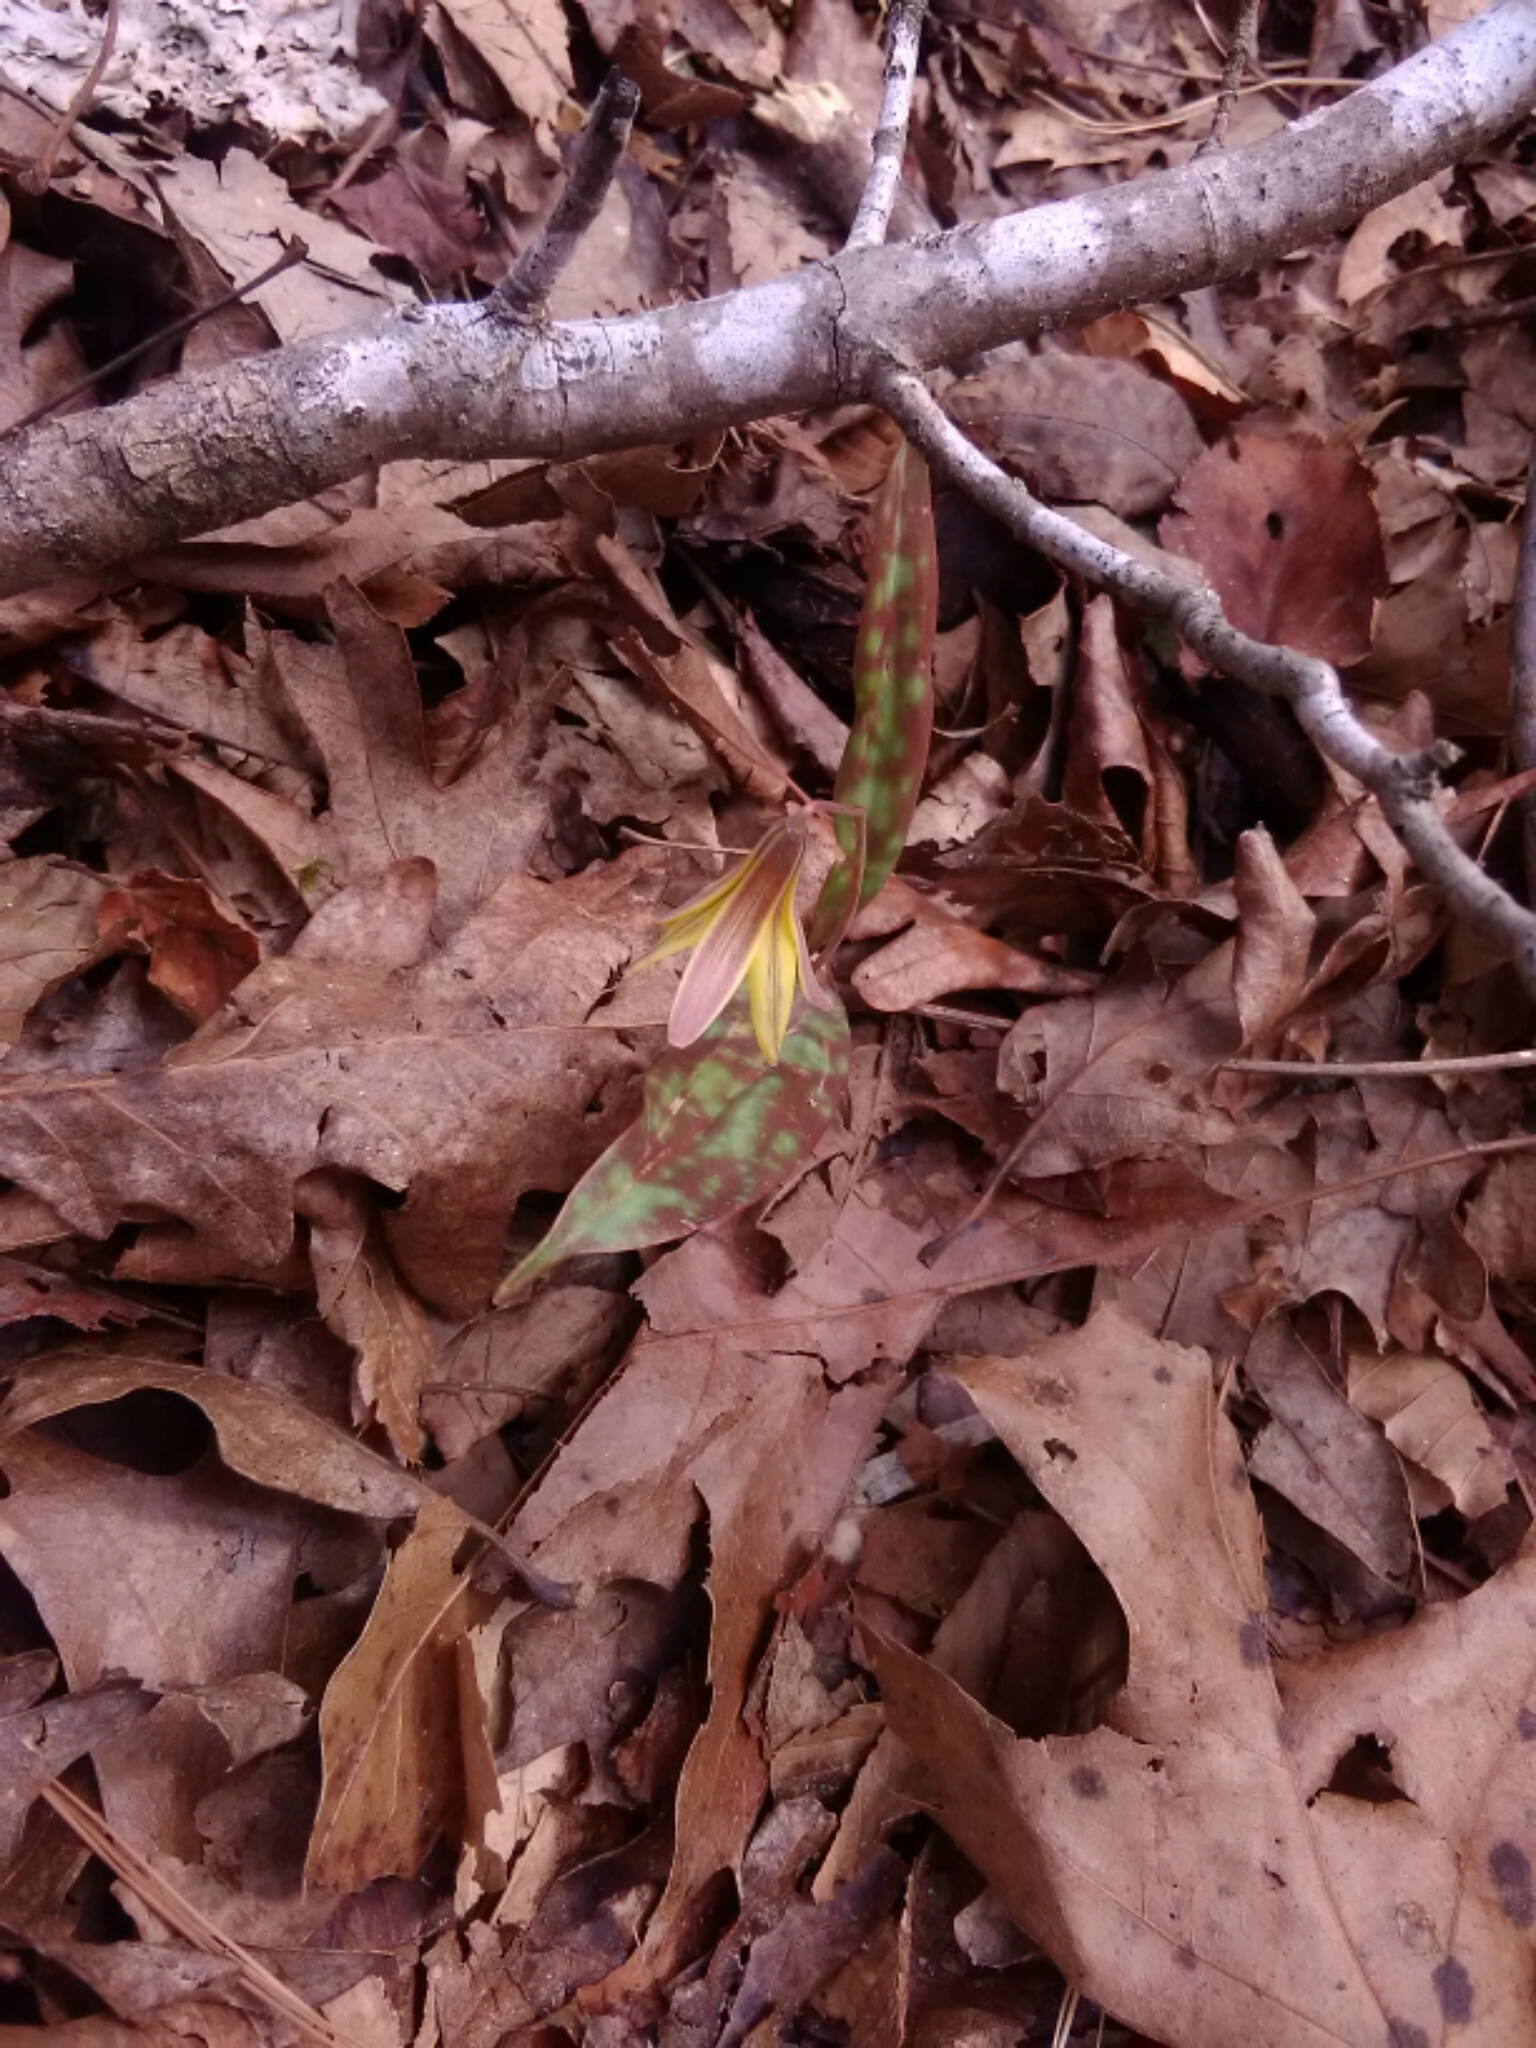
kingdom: Plantae
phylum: Tracheophyta
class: Liliopsida
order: Liliales
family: Liliaceae
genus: Erythronium
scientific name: Erythronium umbilicatum
